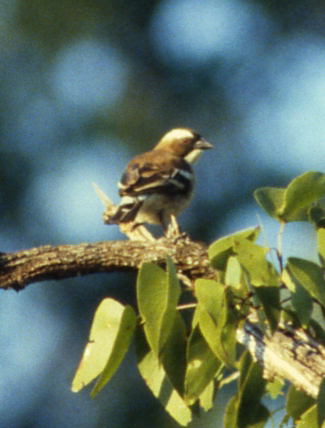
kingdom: Animalia
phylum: Chordata
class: Aves
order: Passeriformes
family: Passeridae
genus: Plocepasser
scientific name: Plocepasser mahali
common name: White-browed sparrow-weaver
